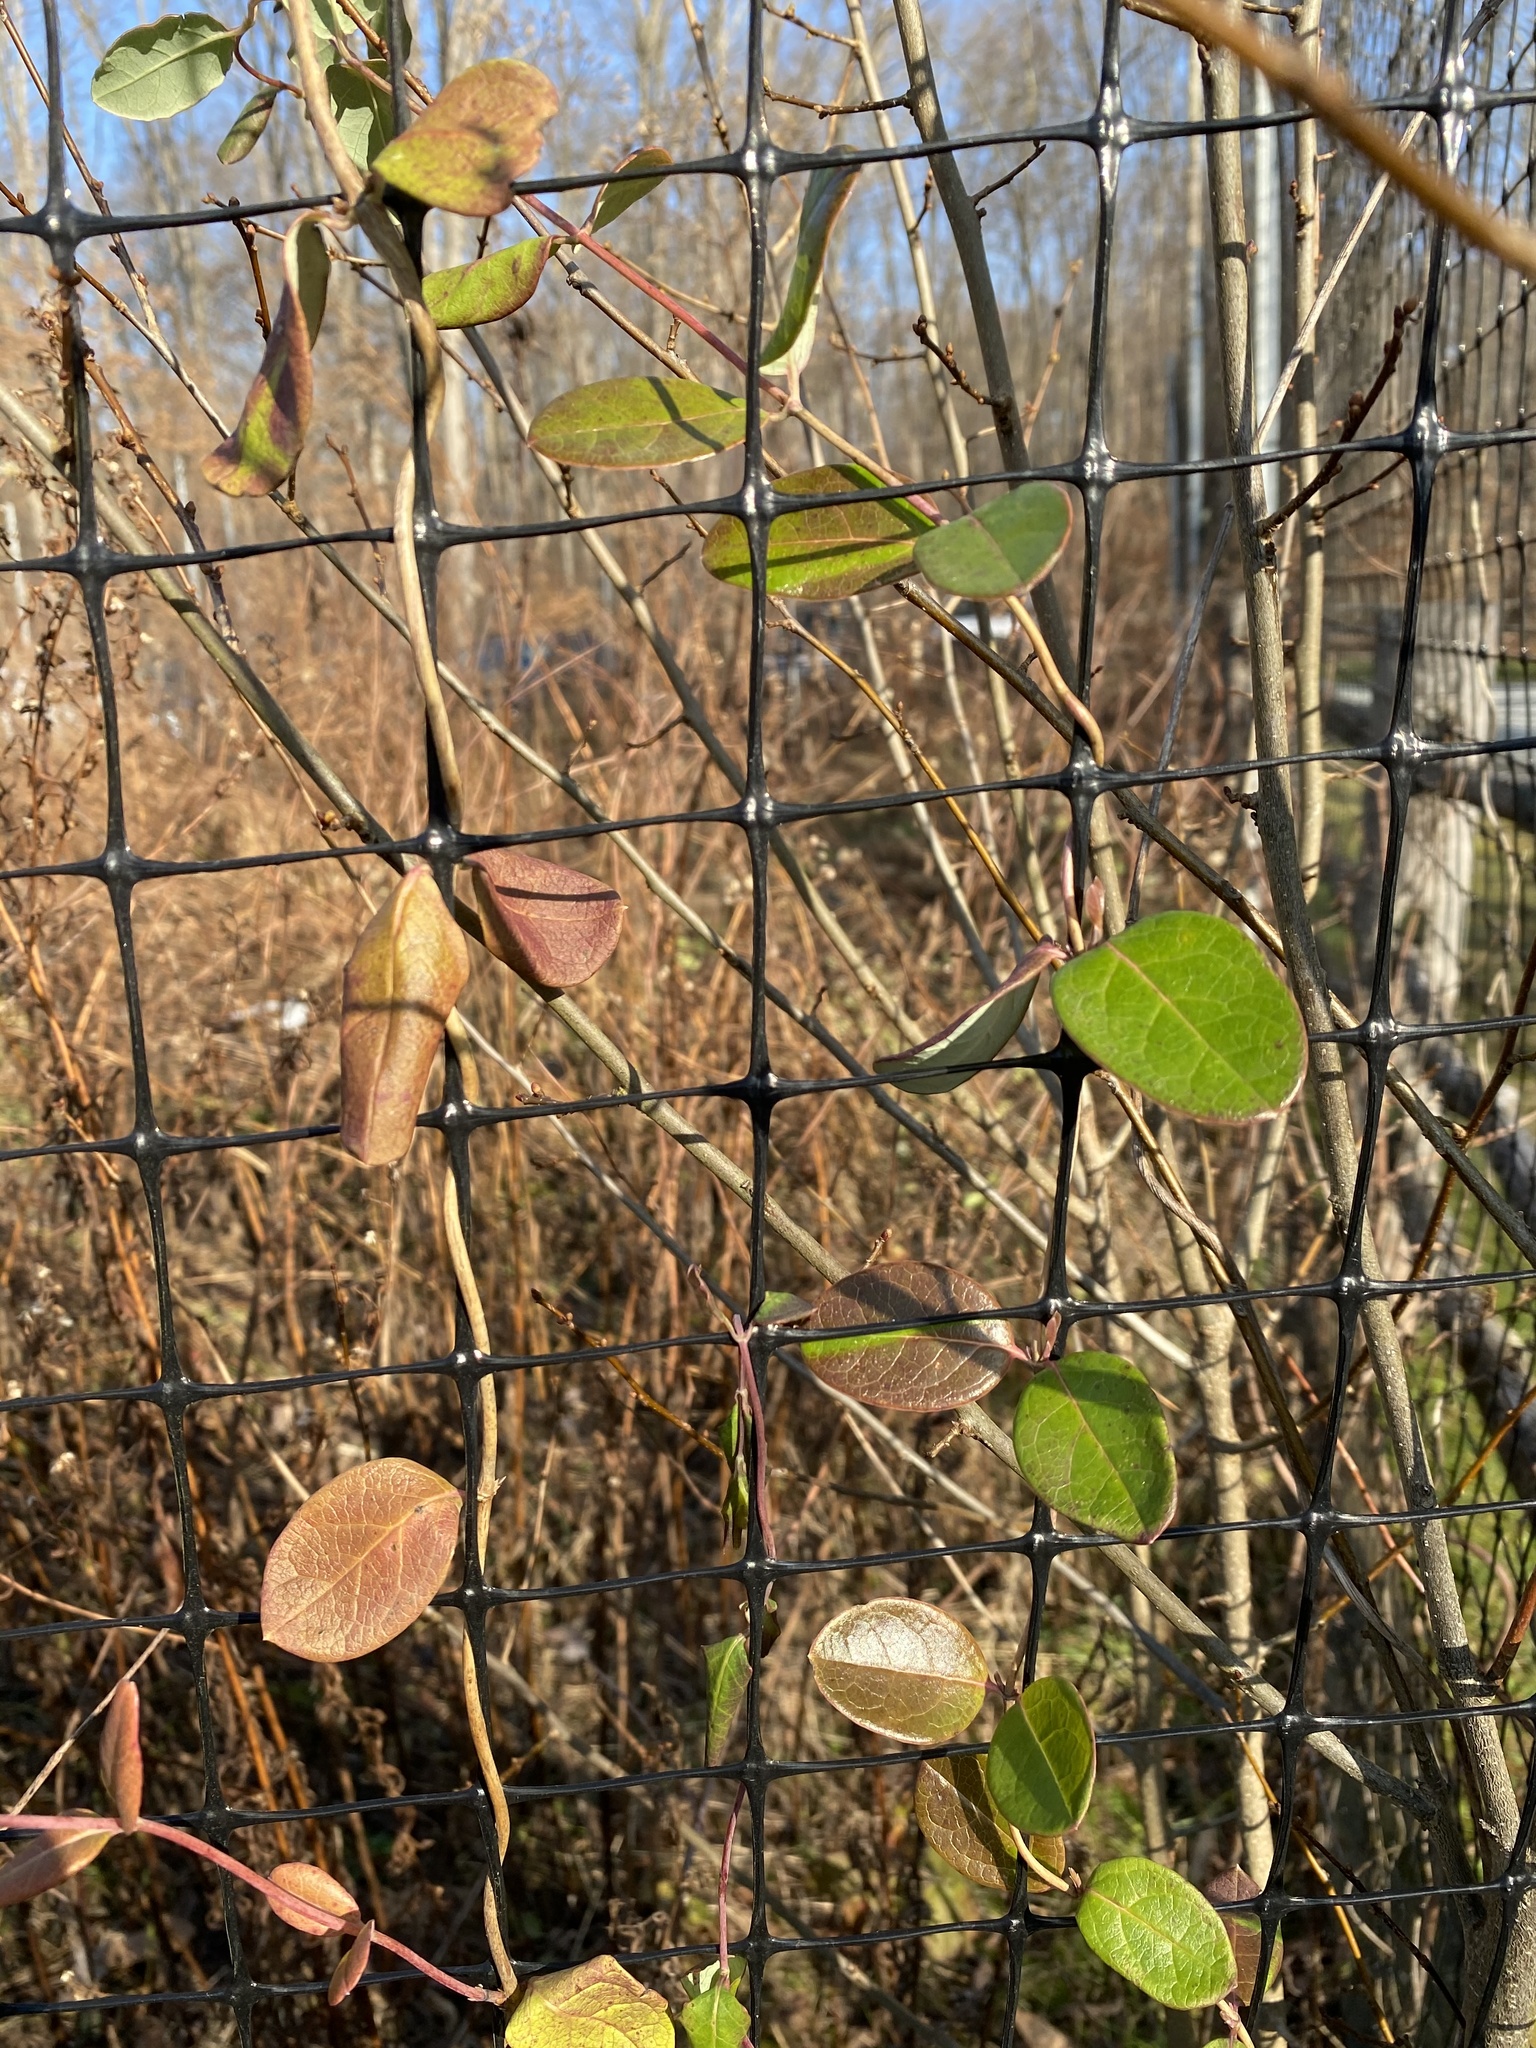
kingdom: Plantae
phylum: Tracheophyta
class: Magnoliopsida
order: Dipsacales
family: Caprifoliaceae
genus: Lonicera
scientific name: Lonicera japonica
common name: Japanese honeysuckle
